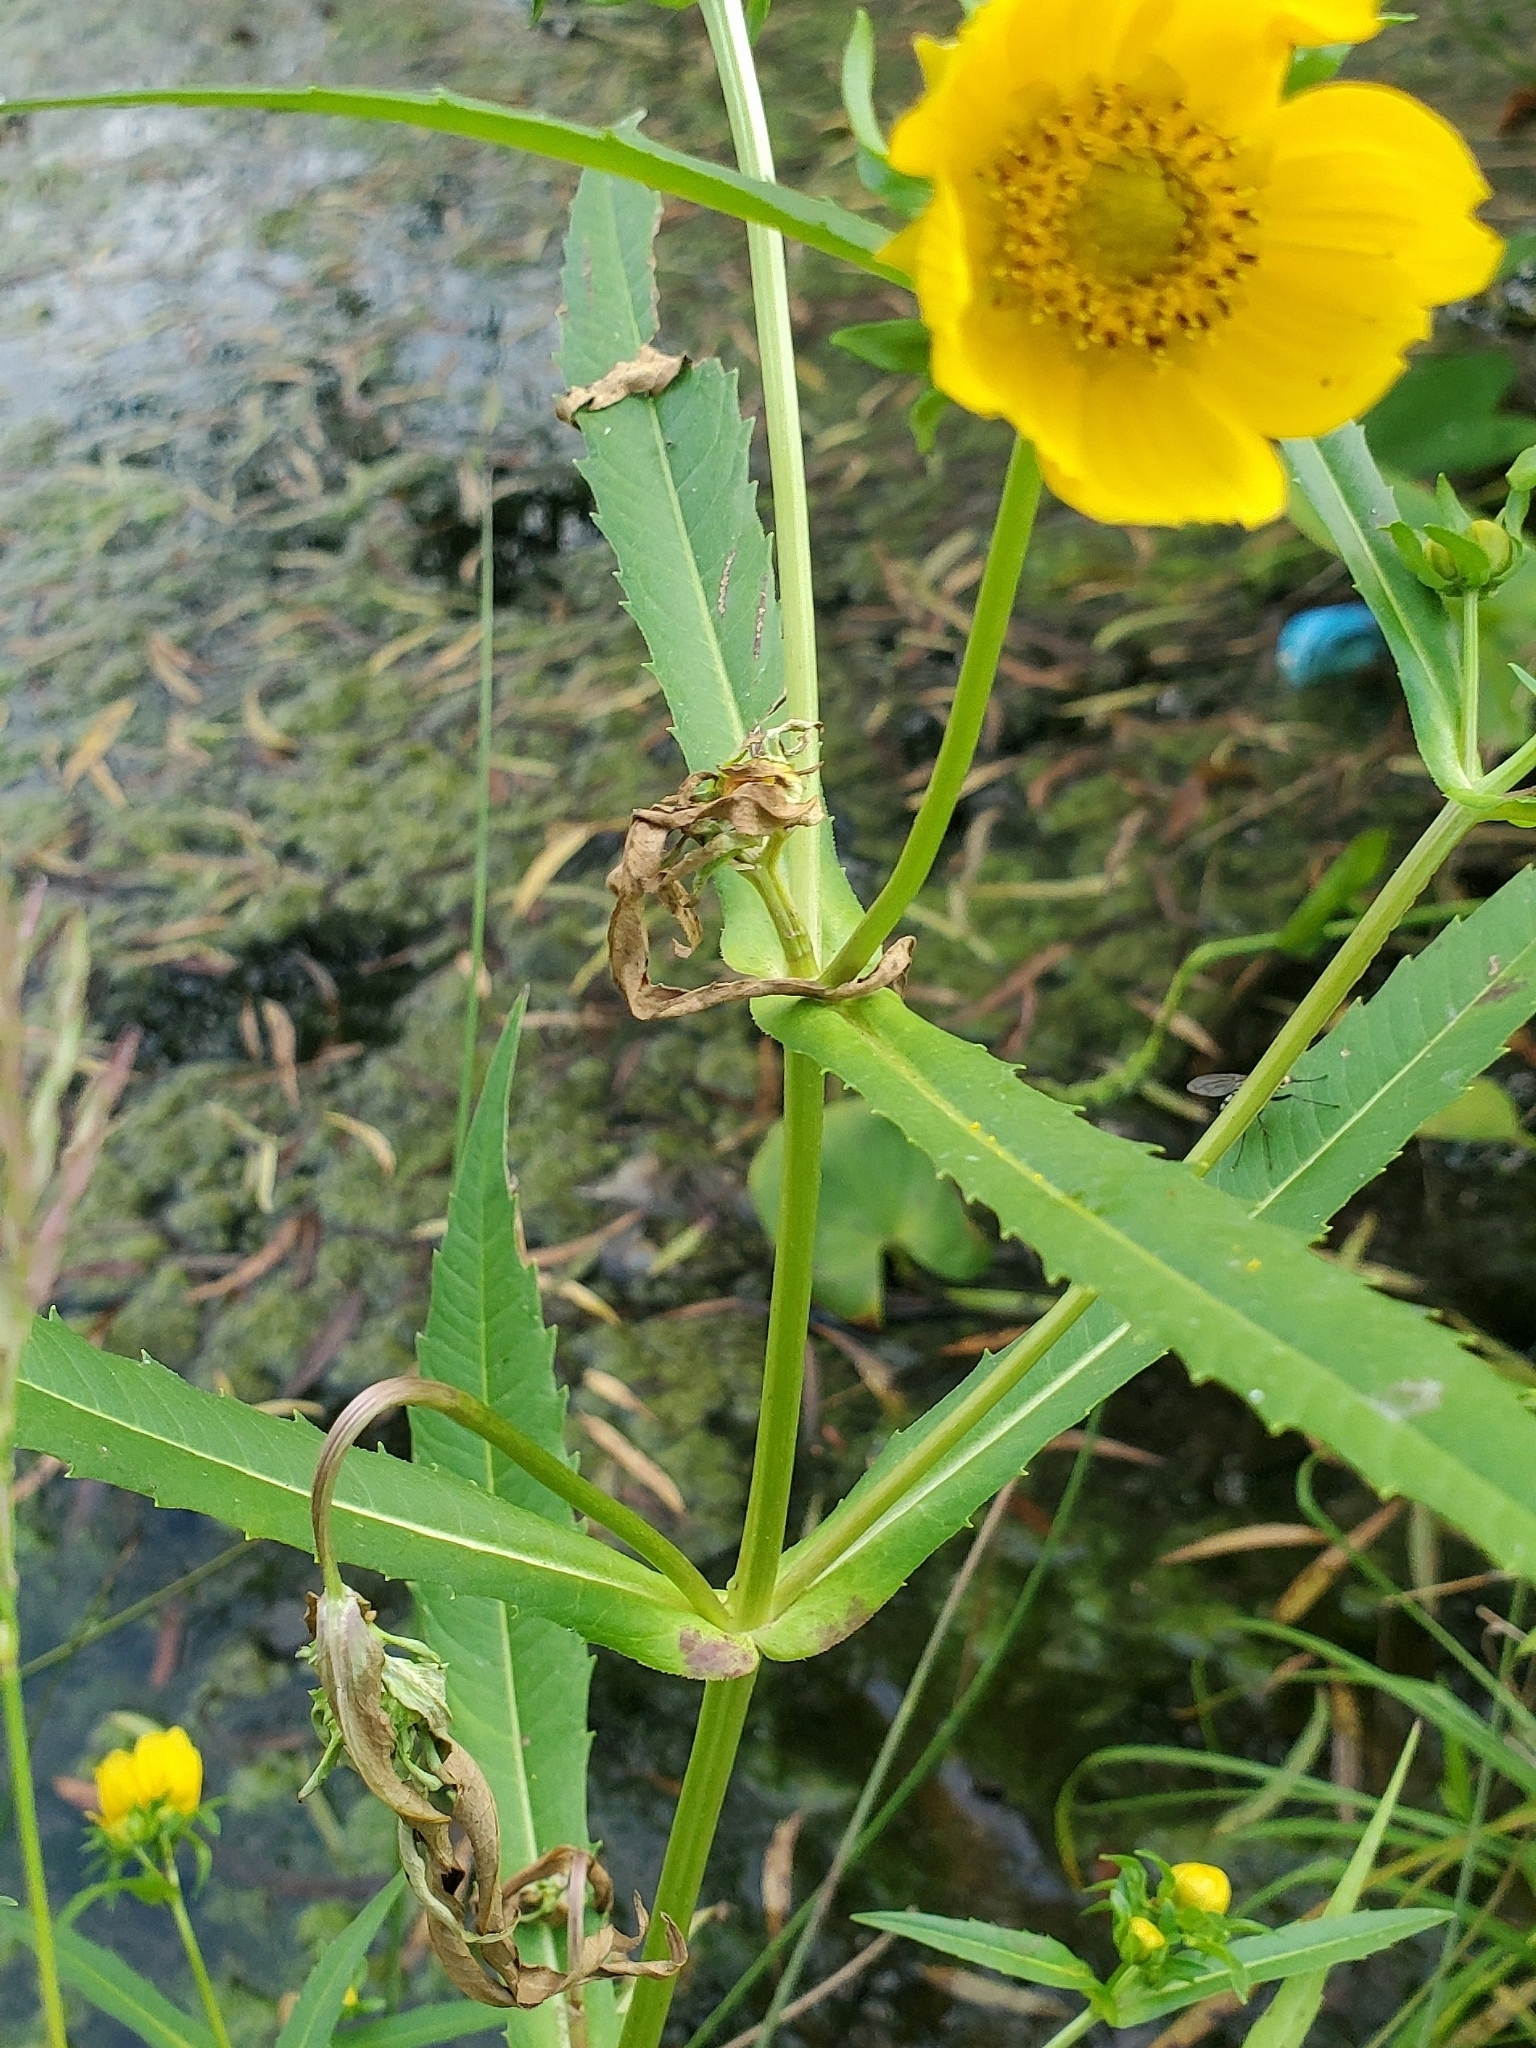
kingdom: Plantae
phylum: Tracheophyta
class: Magnoliopsida
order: Asterales
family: Asteraceae
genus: Bidens
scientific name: Bidens cernua
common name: Nodding bur-marigold
